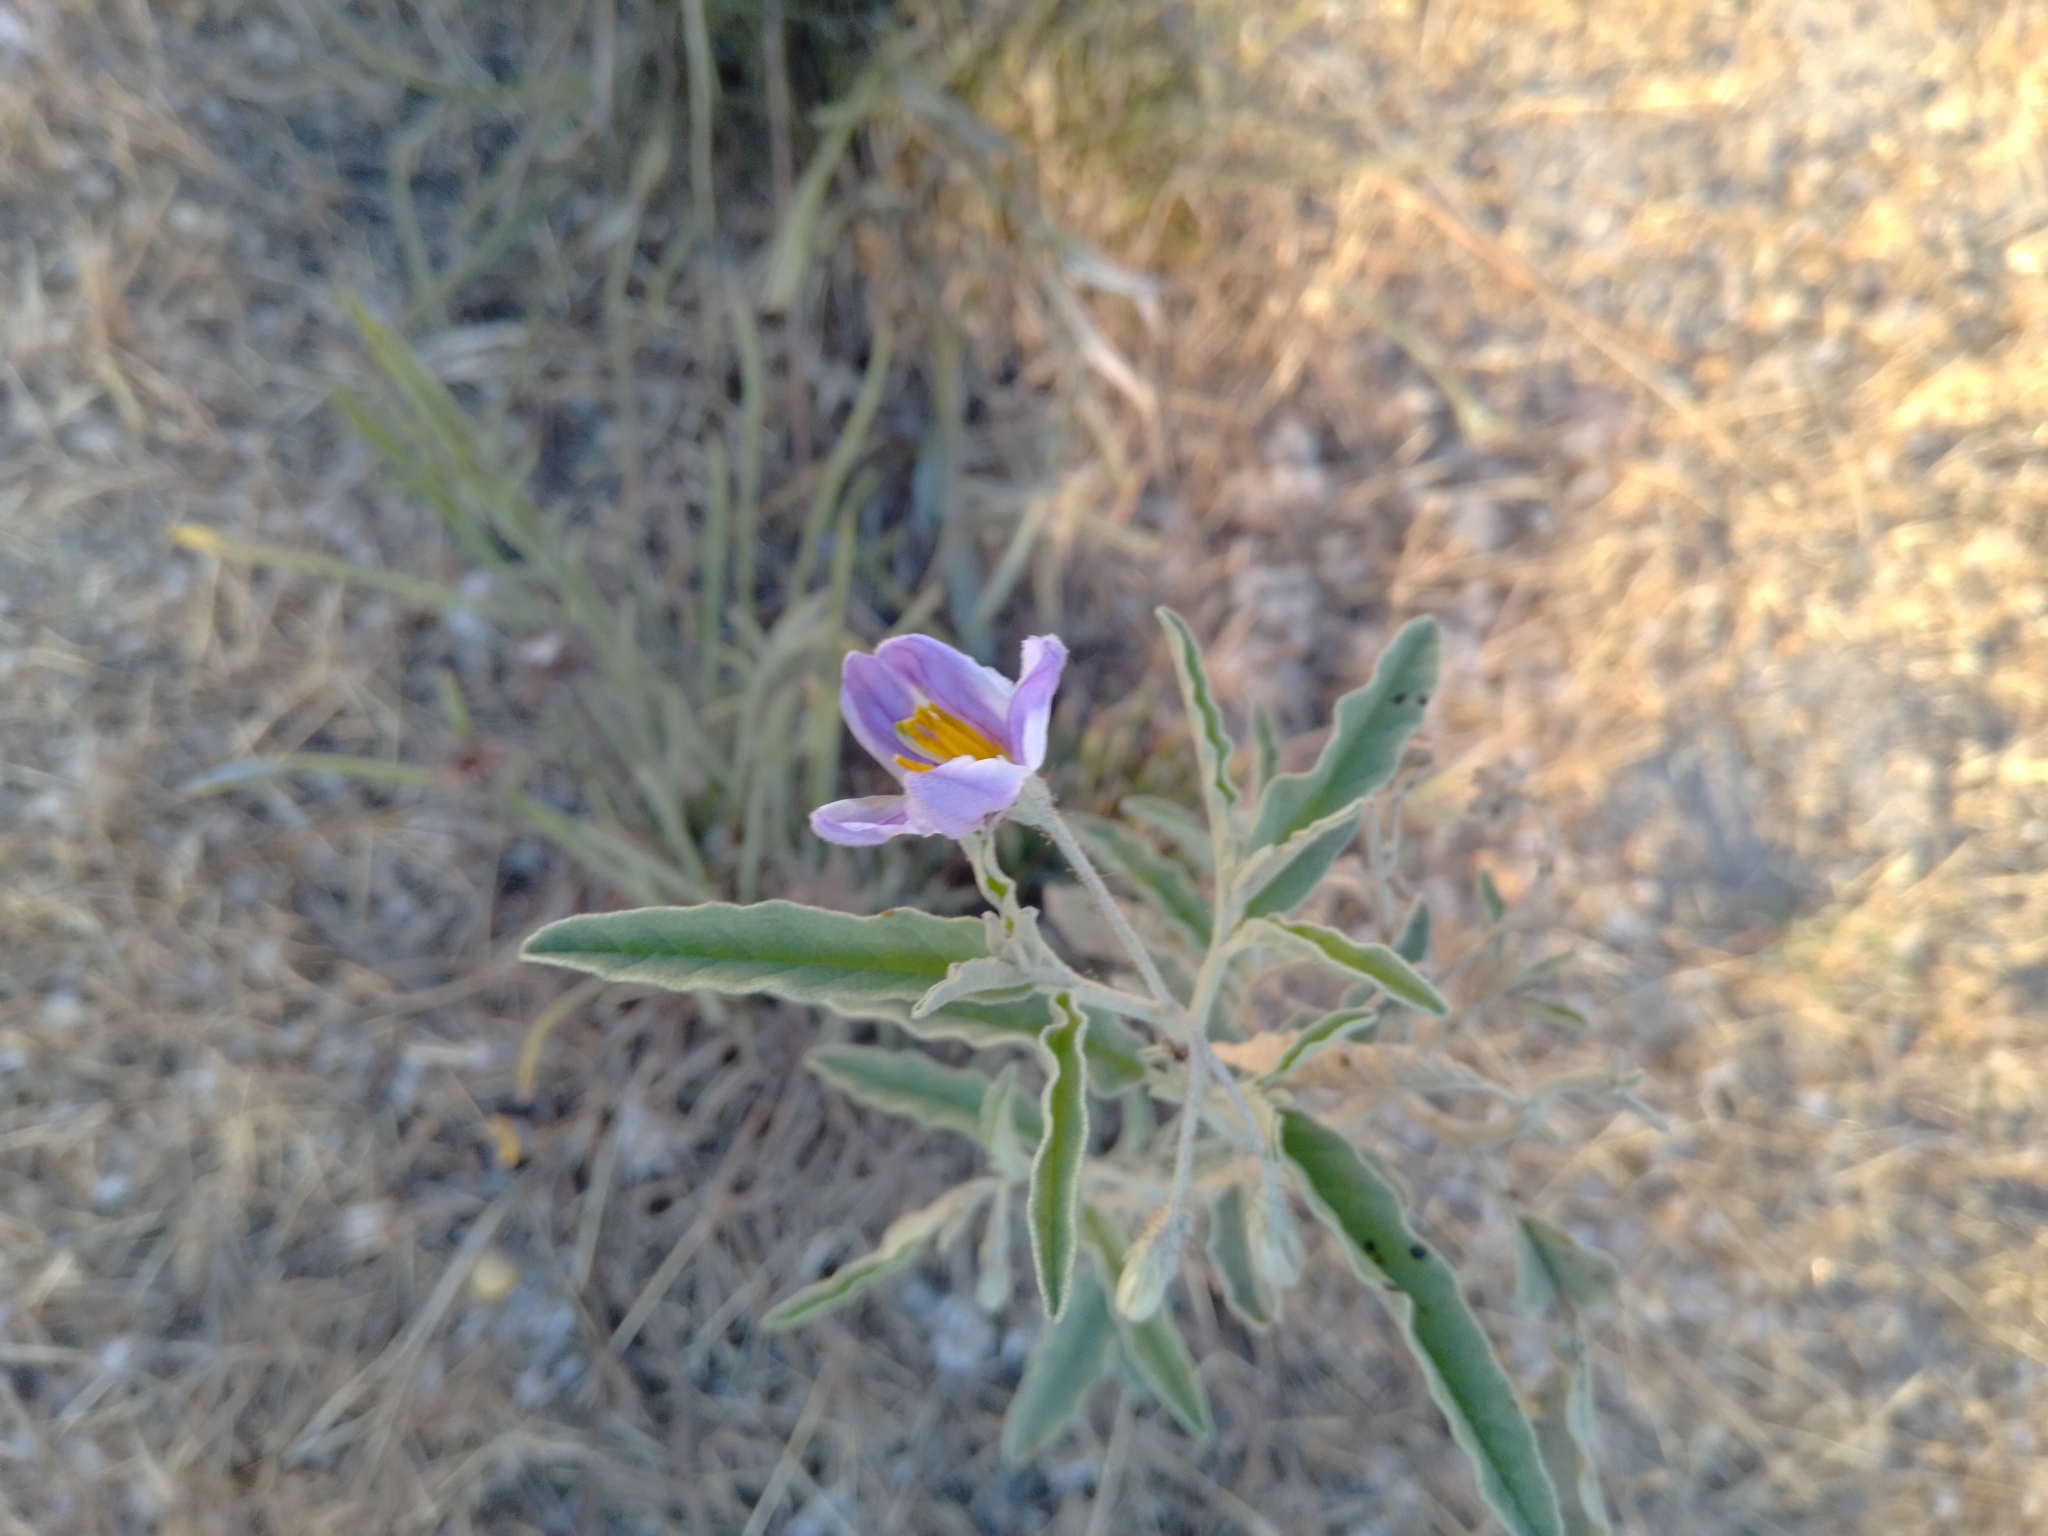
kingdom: Plantae
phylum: Tracheophyta
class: Magnoliopsida
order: Solanales
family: Solanaceae
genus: Solanum
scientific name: Solanum elaeagnifolium
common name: Silverleaf nightshade
